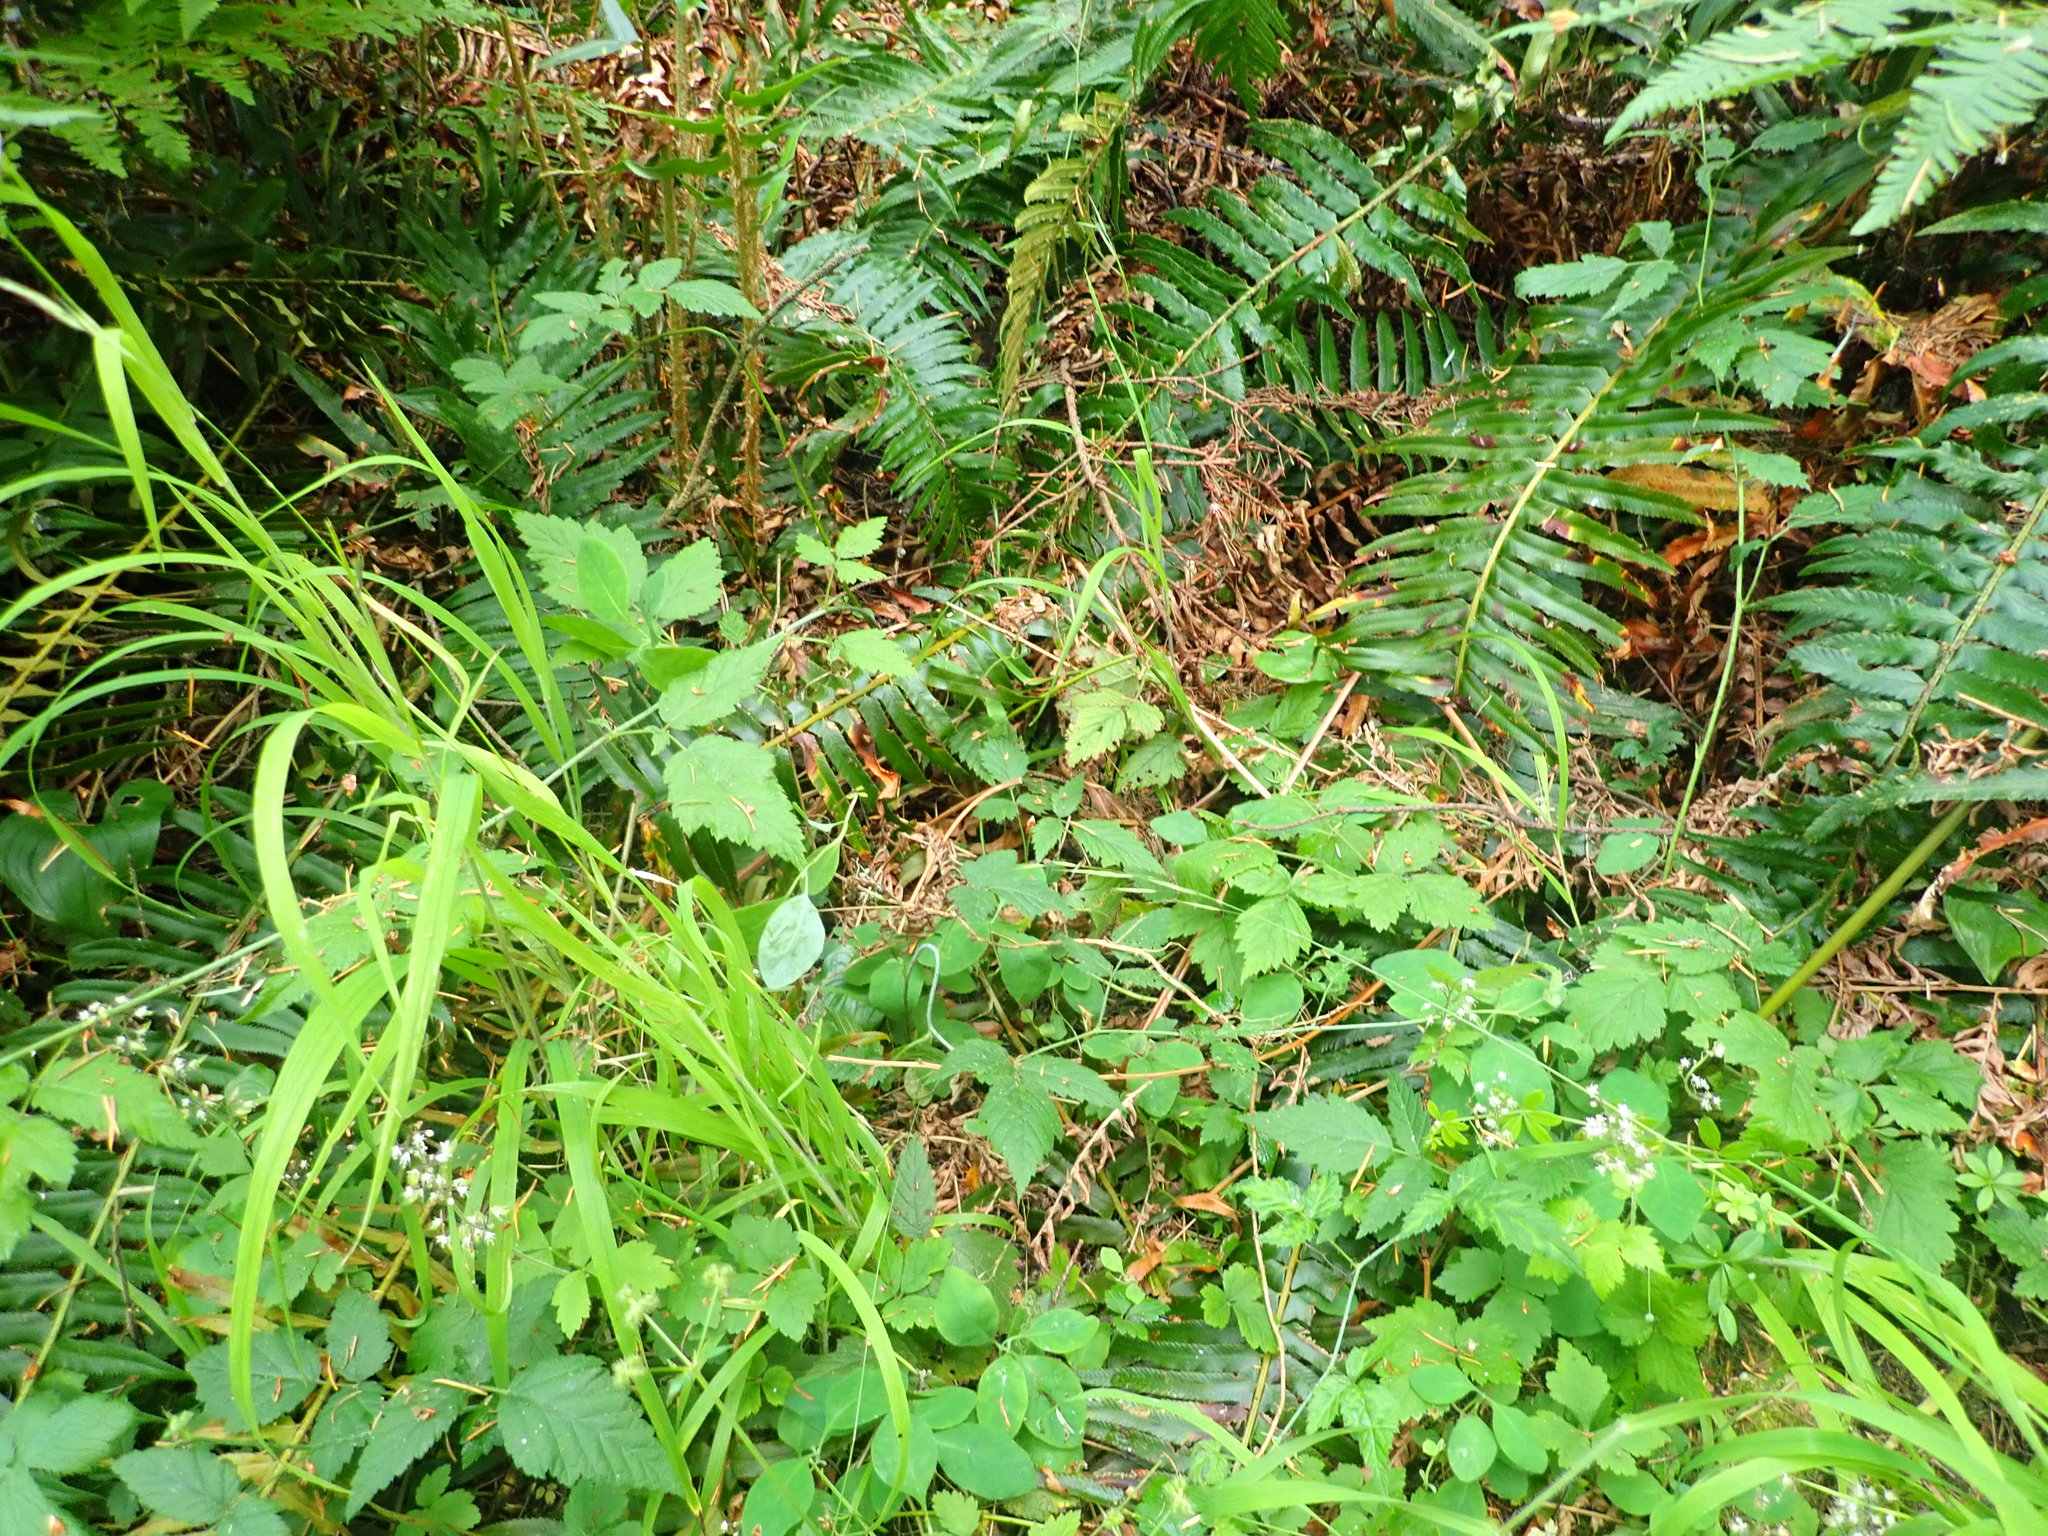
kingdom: Plantae
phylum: Tracheophyta
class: Magnoliopsida
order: Gentianales
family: Rubiaceae
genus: Galium
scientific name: Galium triflorum
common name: Fragrant bedstraw
